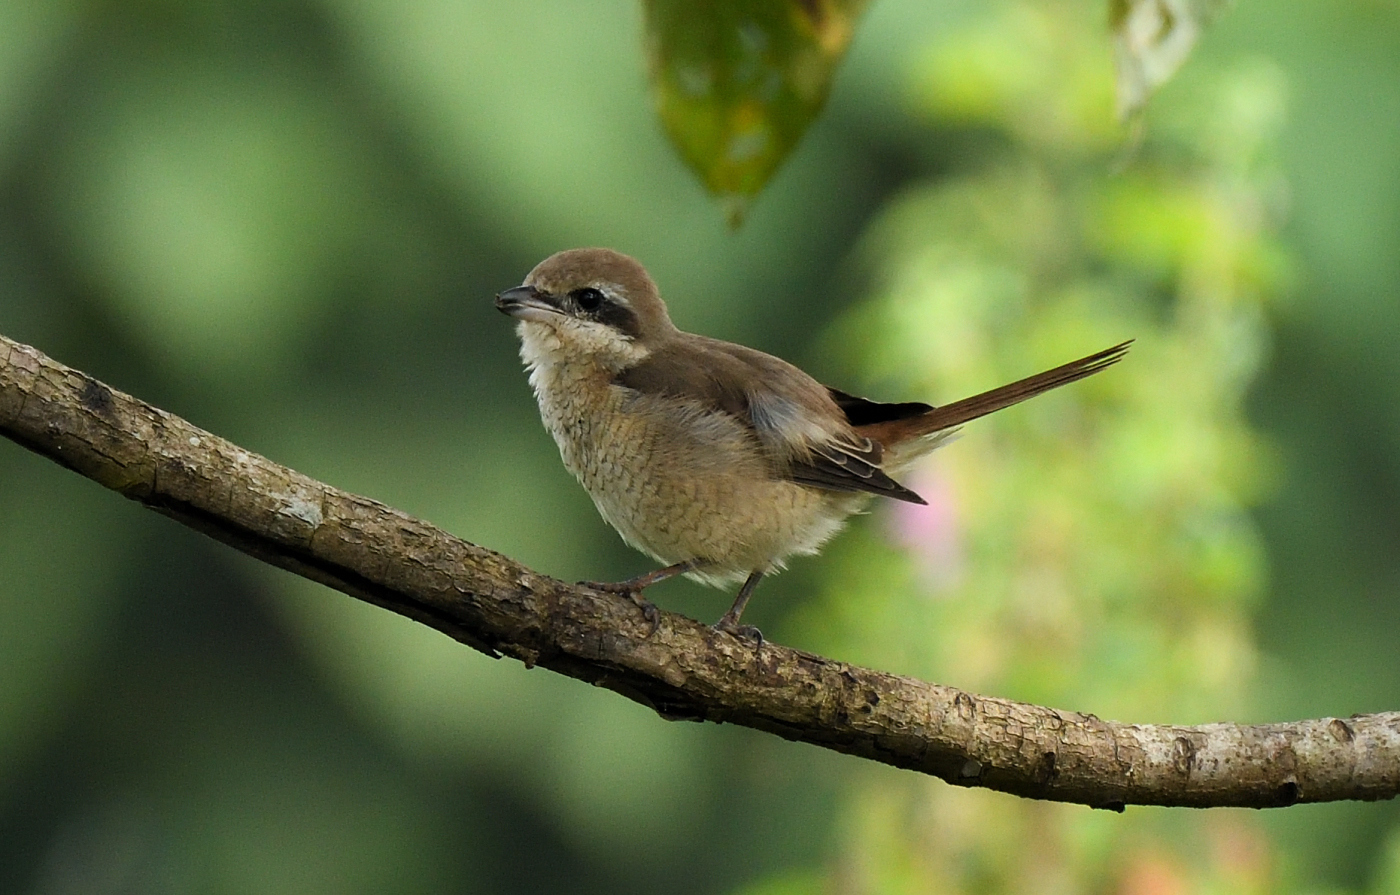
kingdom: Animalia
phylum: Chordata
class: Aves
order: Passeriformes
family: Laniidae
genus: Lanius
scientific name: Lanius cristatus
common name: Brown shrike
